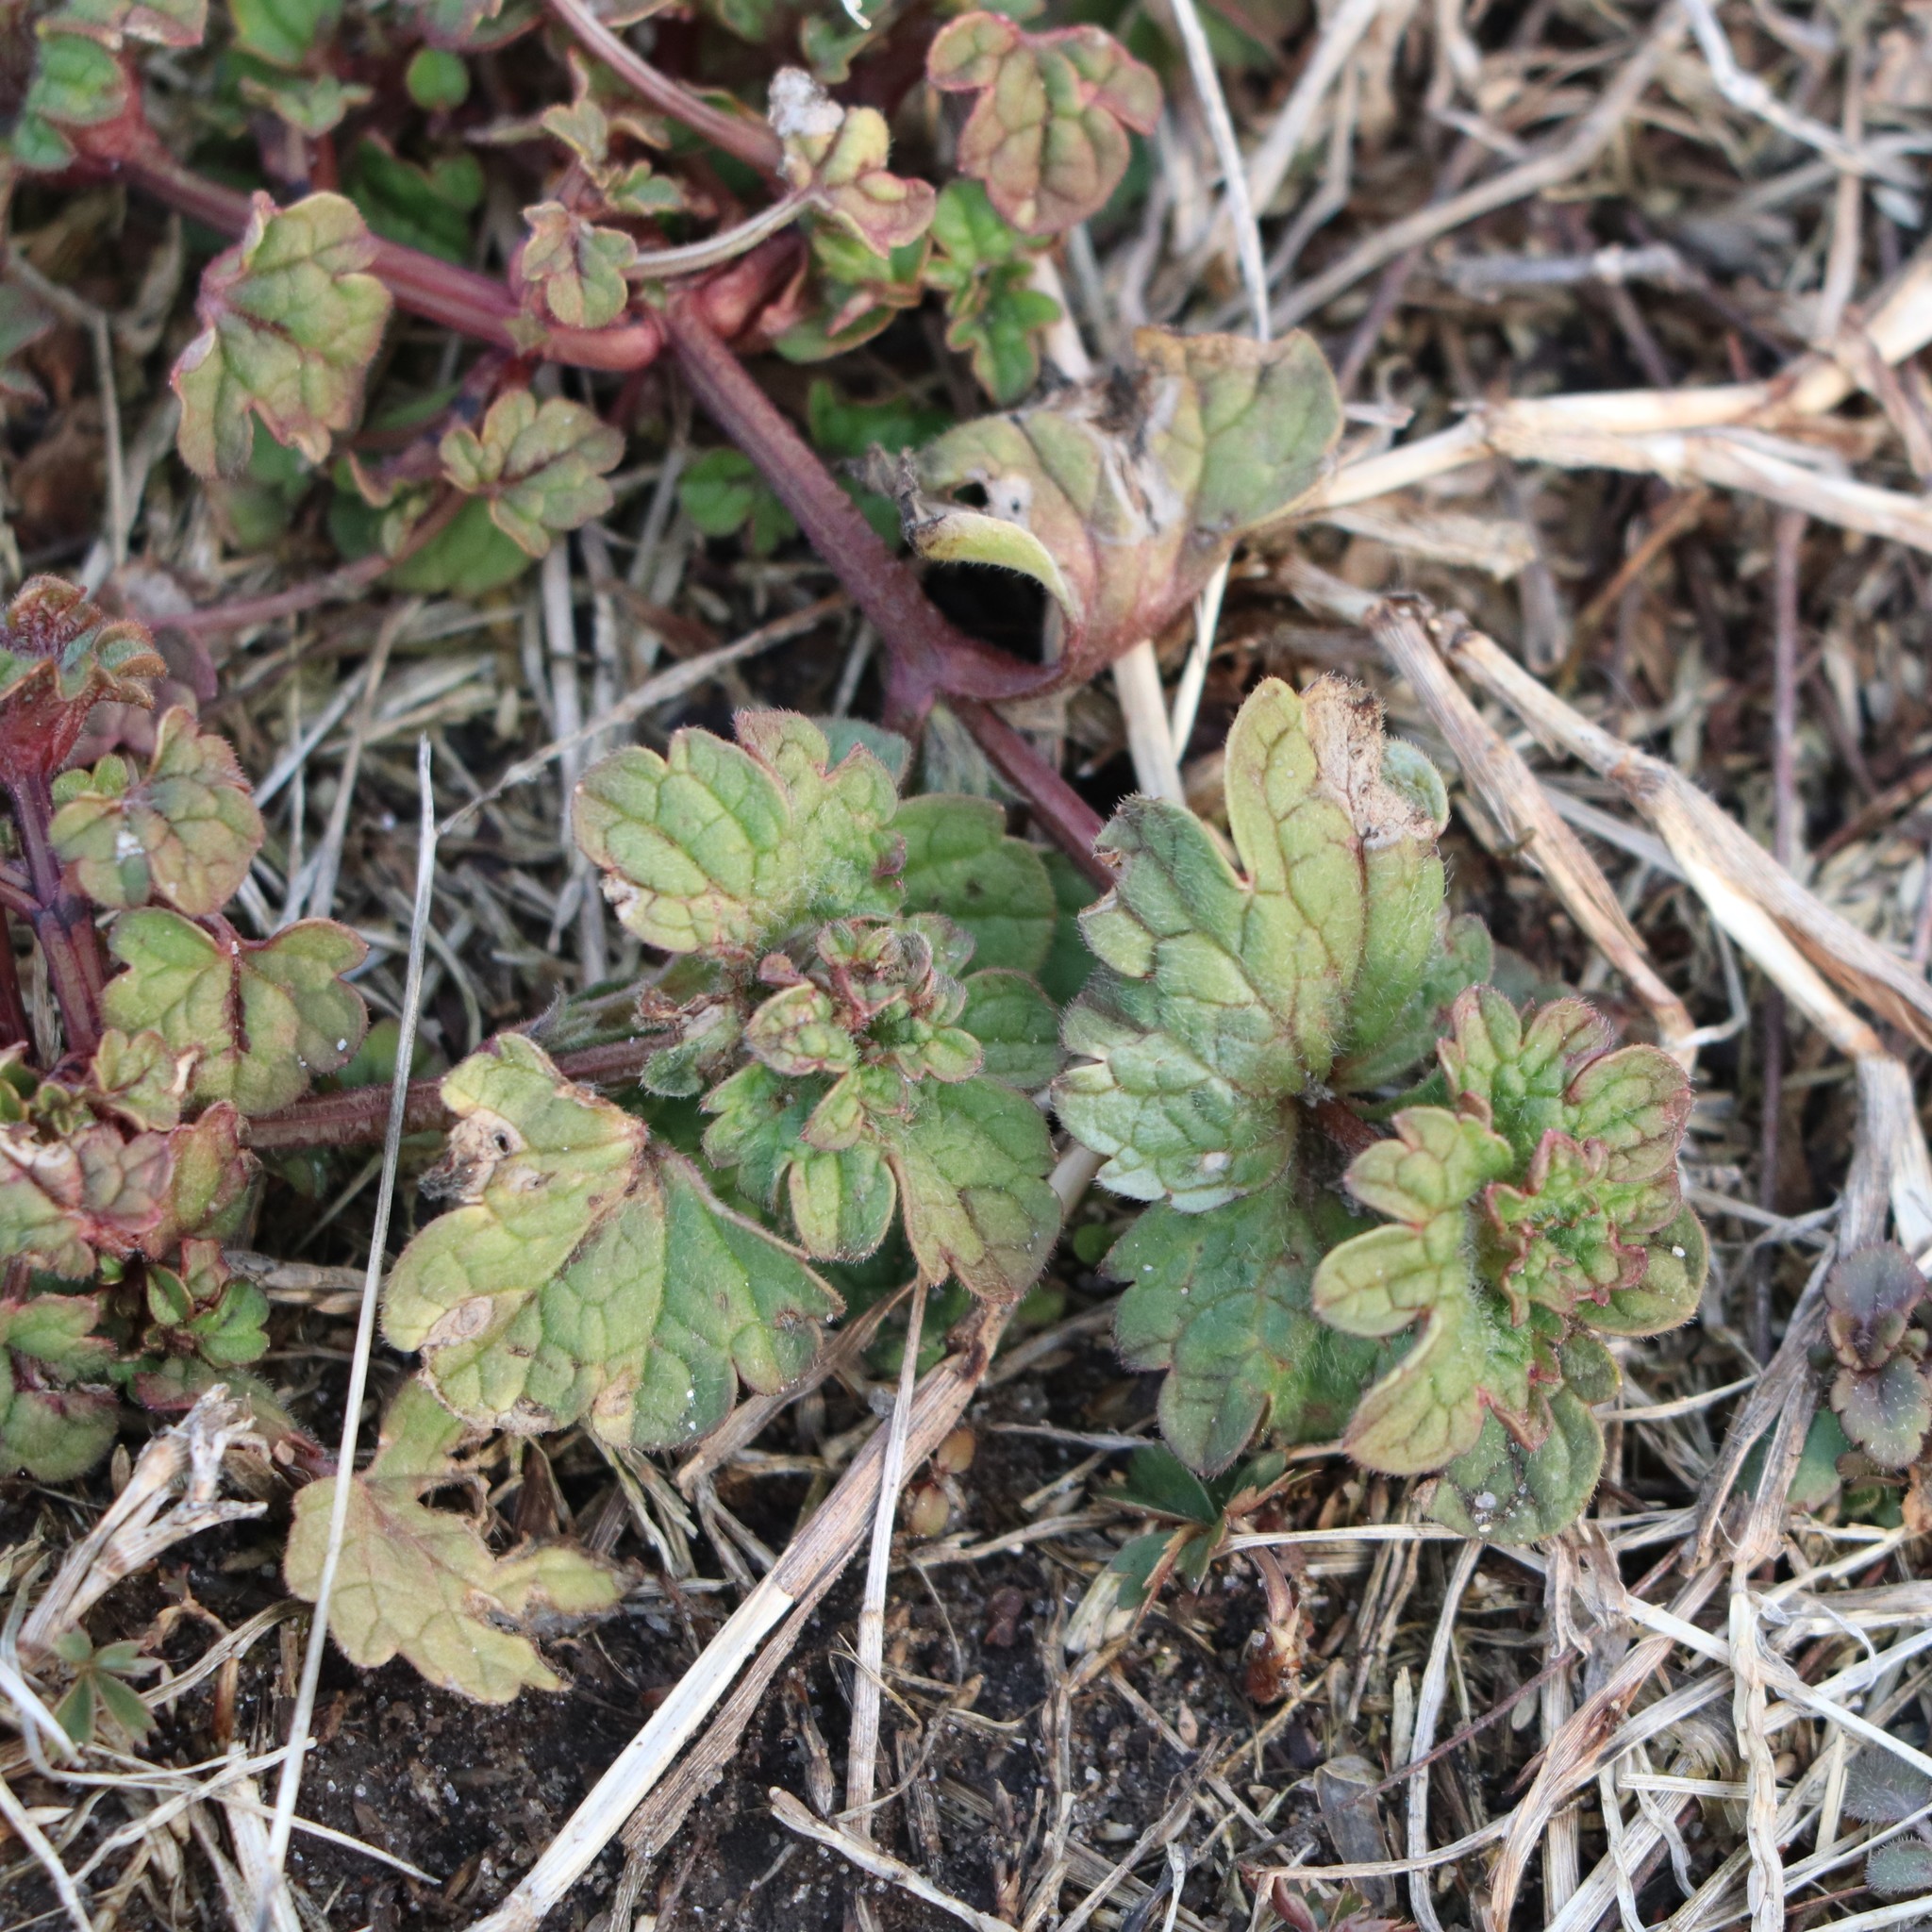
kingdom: Plantae
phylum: Tracheophyta
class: Magnoliopsida
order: Lamiales
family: Lamiaceae
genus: Lamium
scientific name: Lamium amplexicaule
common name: Henbit dead-nettle
